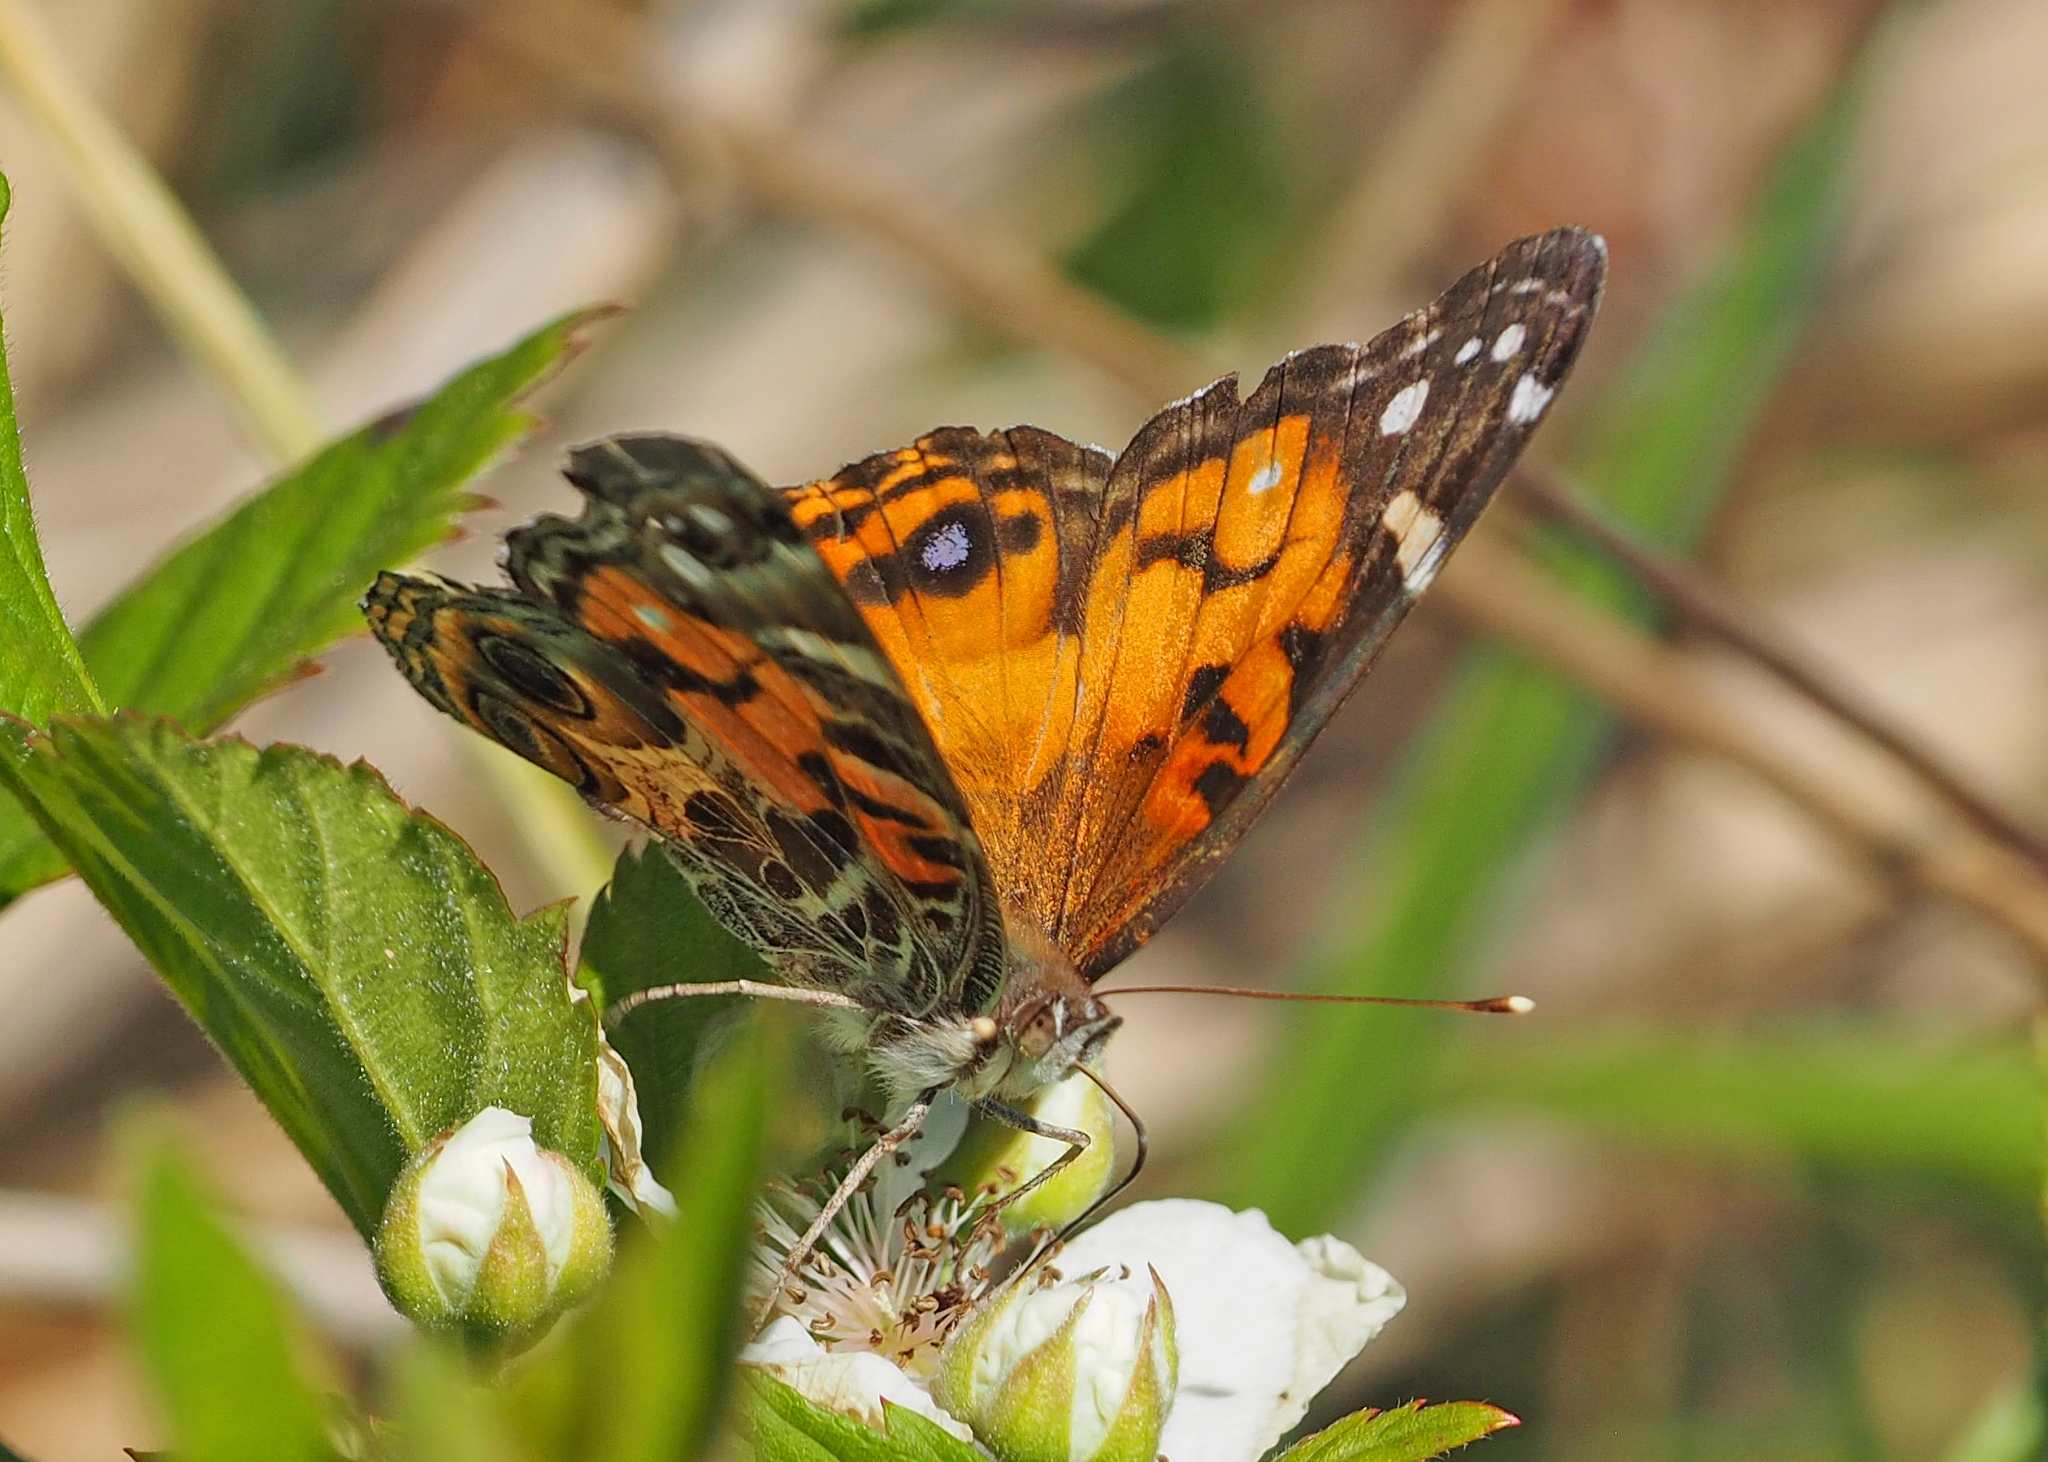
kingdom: Animalia
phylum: Arthropoda
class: Insecta
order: Lepidoptera
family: Nymphalidae
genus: Vanessa
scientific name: Vanessa virginiensis
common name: American lady
